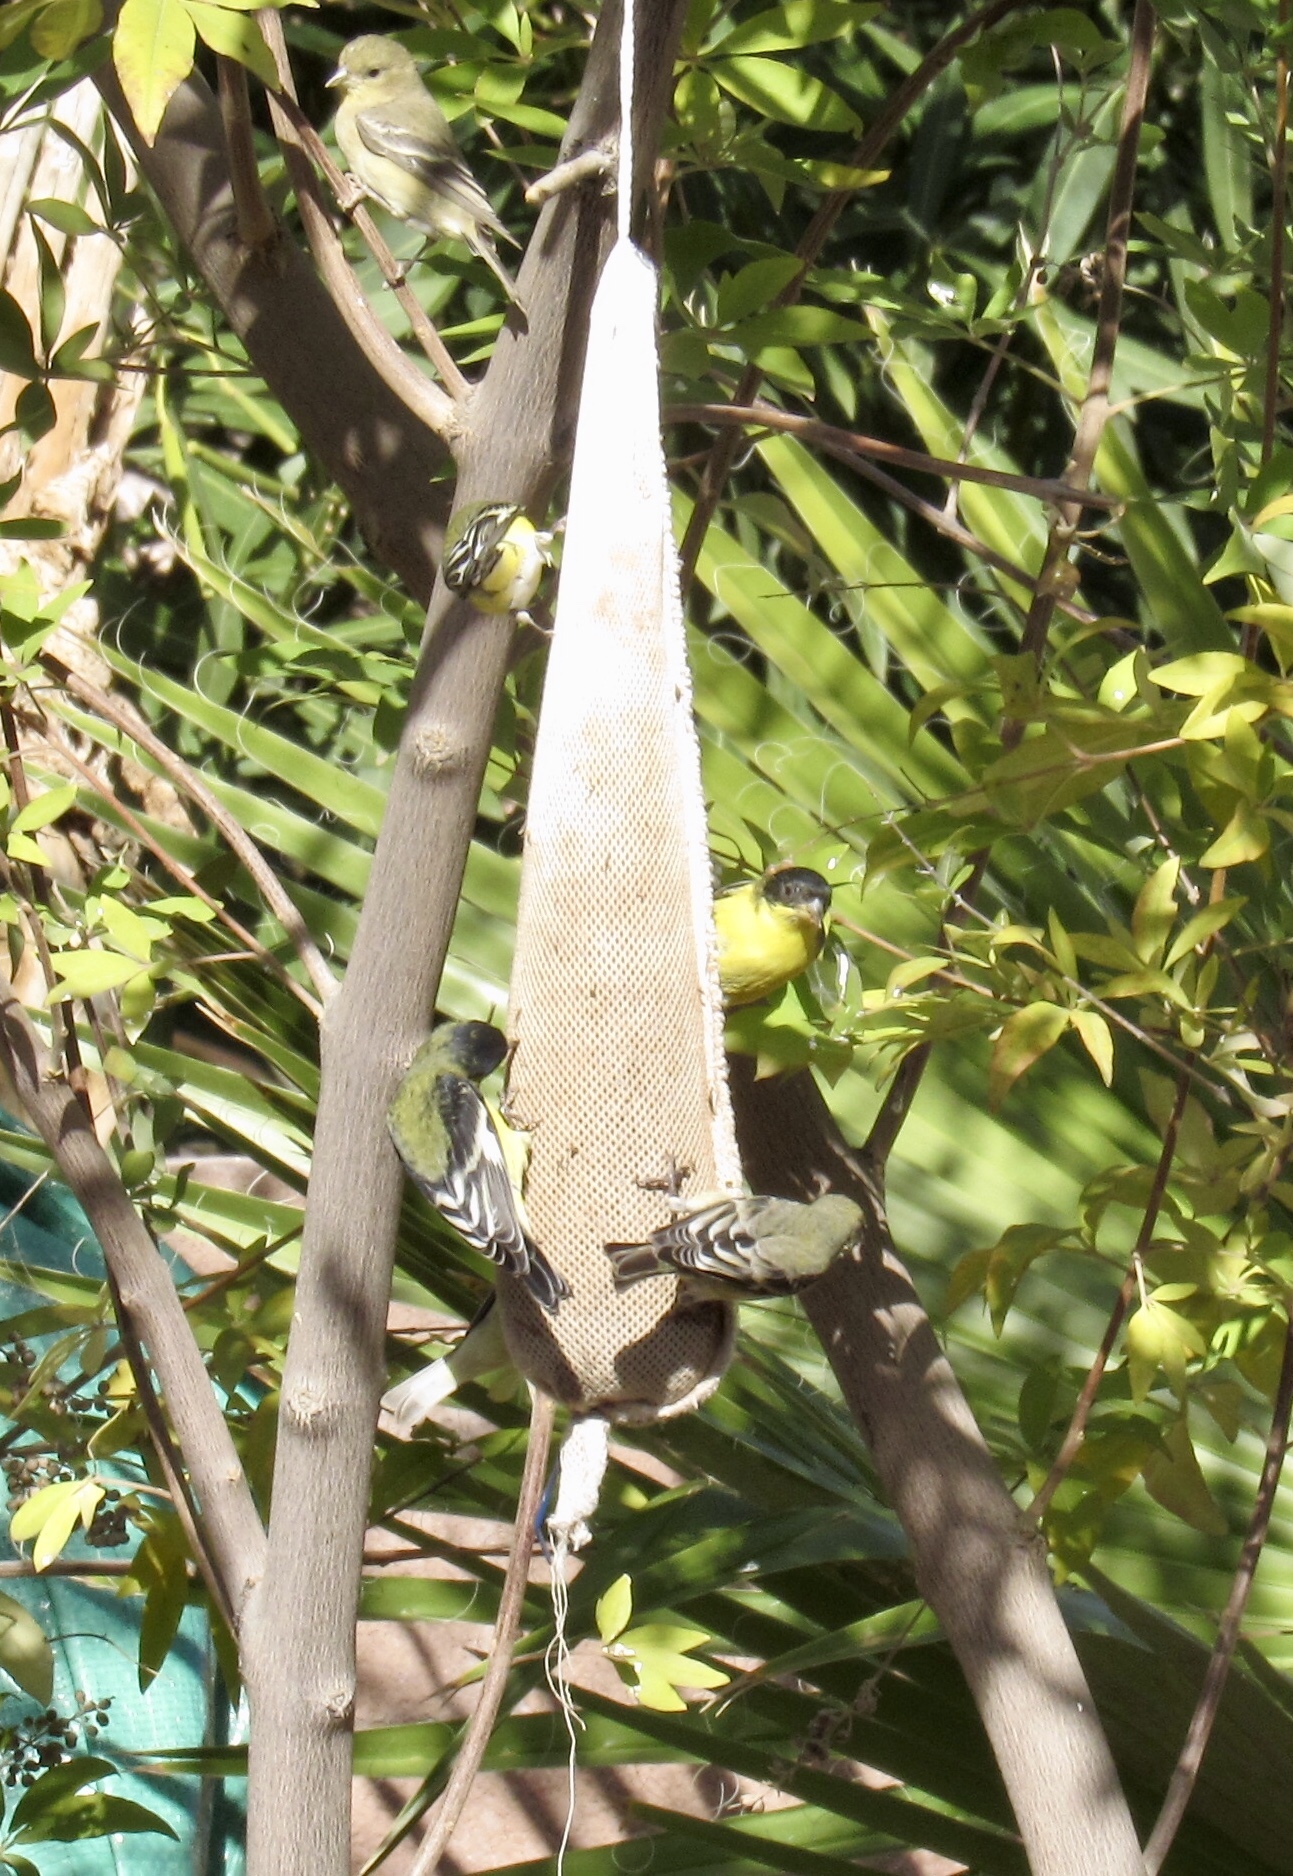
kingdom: Animalia
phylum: Chordata
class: Aves
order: Passeriformes
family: Fringillidae
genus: Spinus
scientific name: Spinus psaltria
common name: Lesser goldfinch
